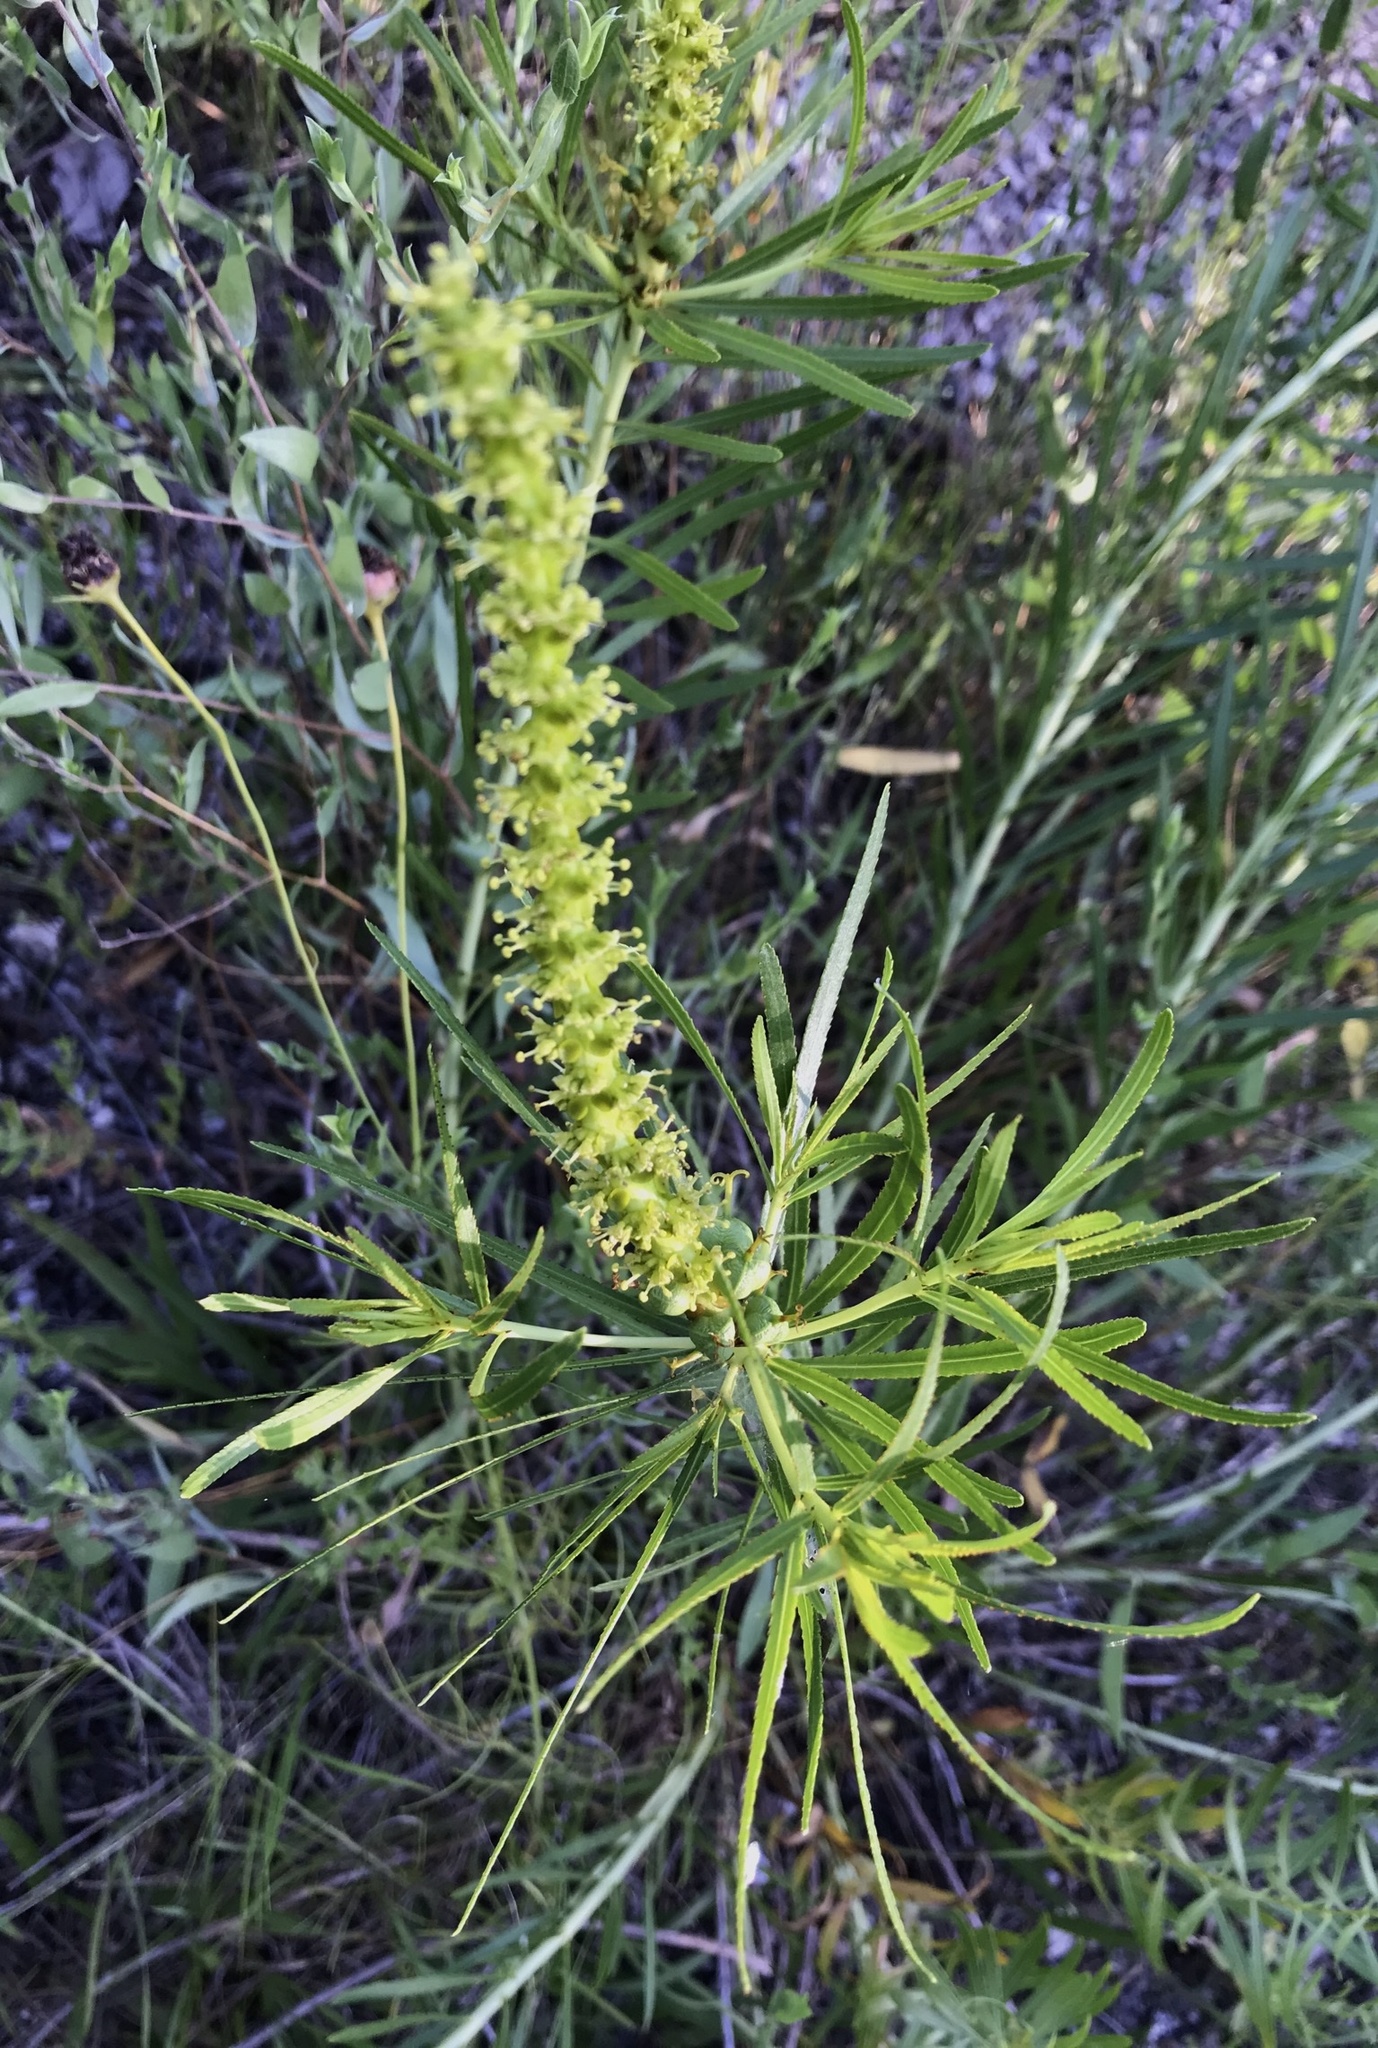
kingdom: Plantae
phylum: Tracheophyta
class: Magnoliopsida
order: Malpighiales
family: Euphorbiaceae
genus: Stillingia
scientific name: Stillingia texana
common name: Texas stillingia
